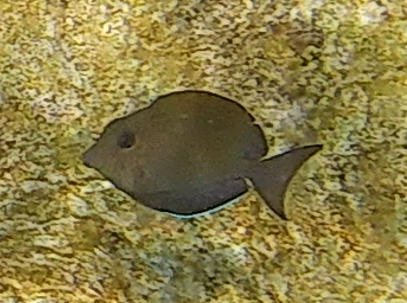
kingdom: Animalia
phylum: Chordata
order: Perciformes
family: Acanthuridae
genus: Acanthurus
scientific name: Acanthurus nigrofuscus
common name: Blackspot surgeonfish
